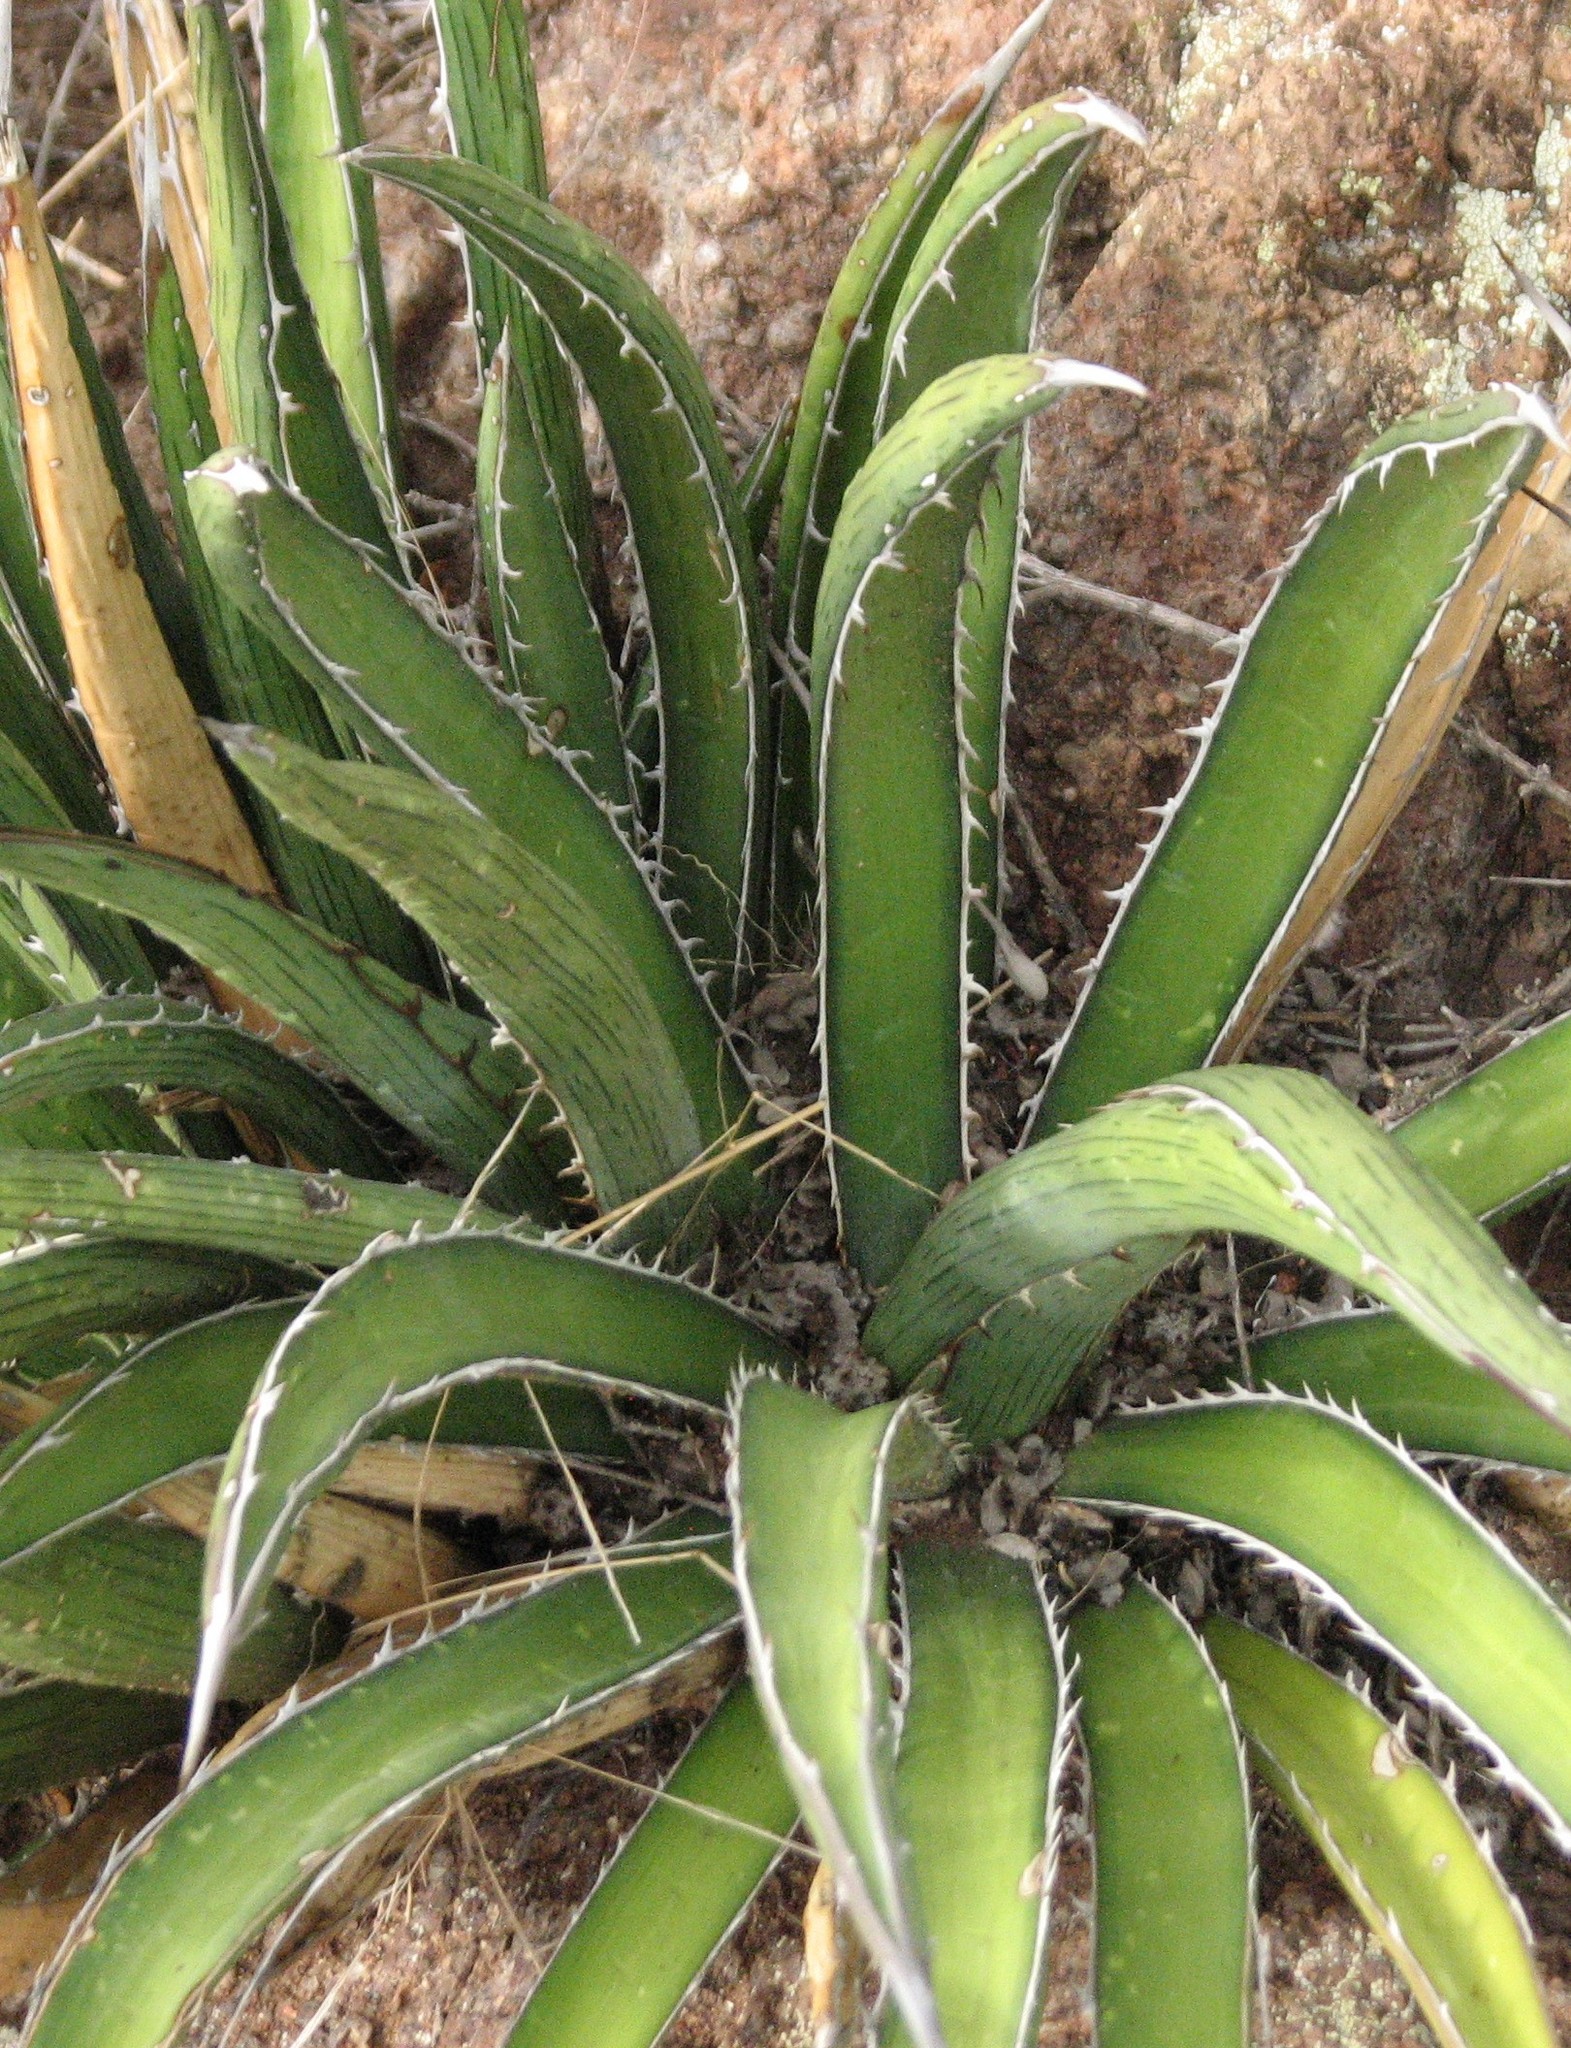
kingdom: Plantae
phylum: Tracheophyta
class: Liliopsida
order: Asparagales
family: Asparagaceae
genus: Agave
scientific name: Agave lechuguilla
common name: Lecheguilla agave
